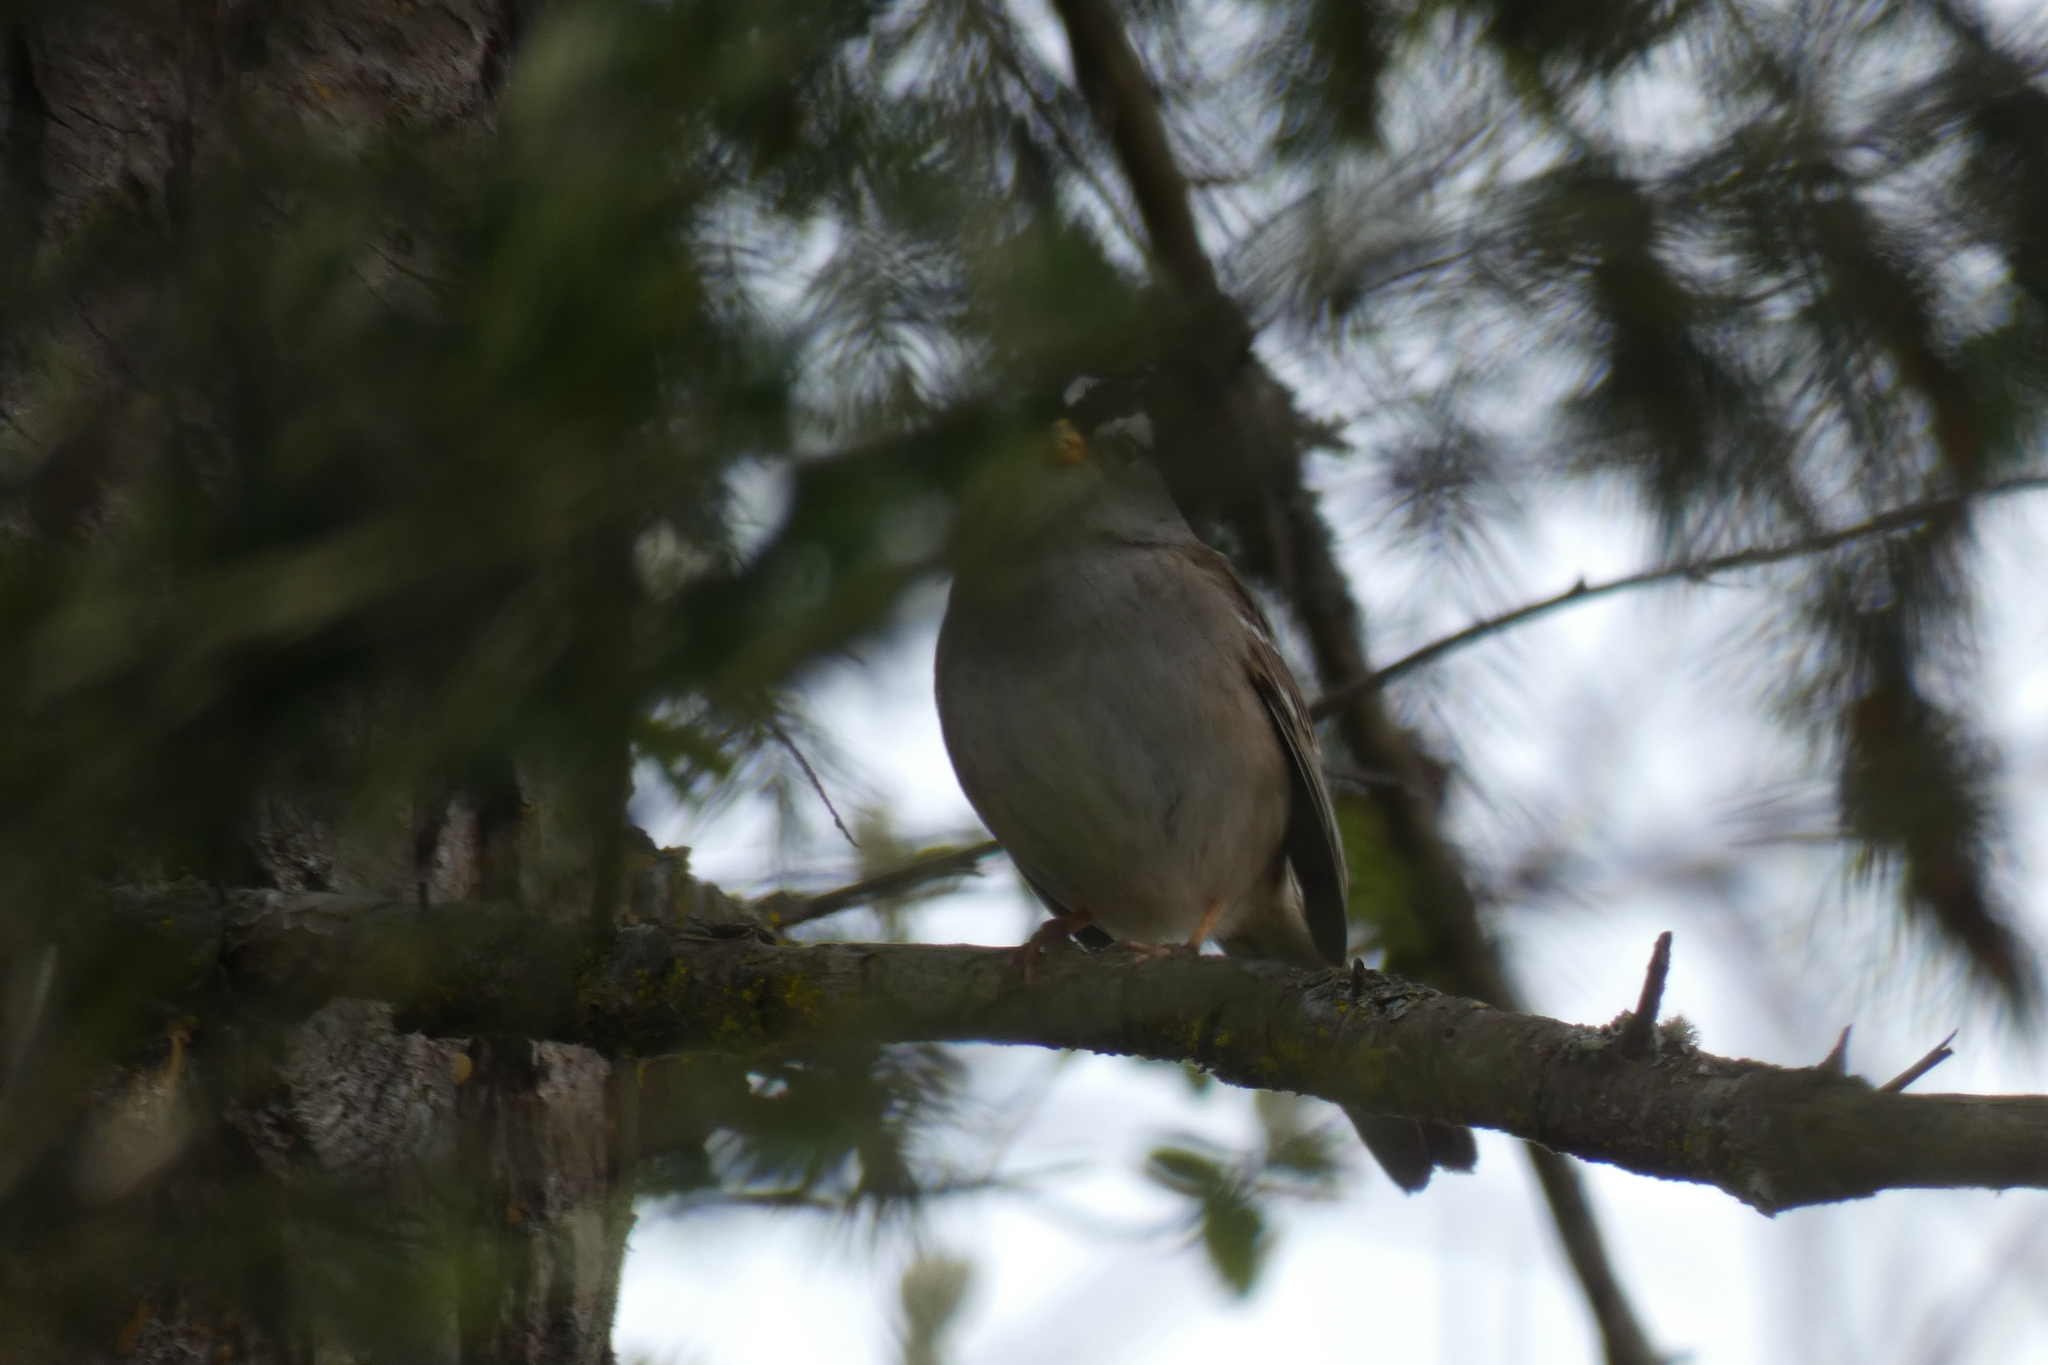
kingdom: Animalia
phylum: Chordata
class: Aves
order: Passeriformes
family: Passerellidae
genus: Zonotrichia
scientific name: Zonotrichia leucophrys
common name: White-crowned sparrow
